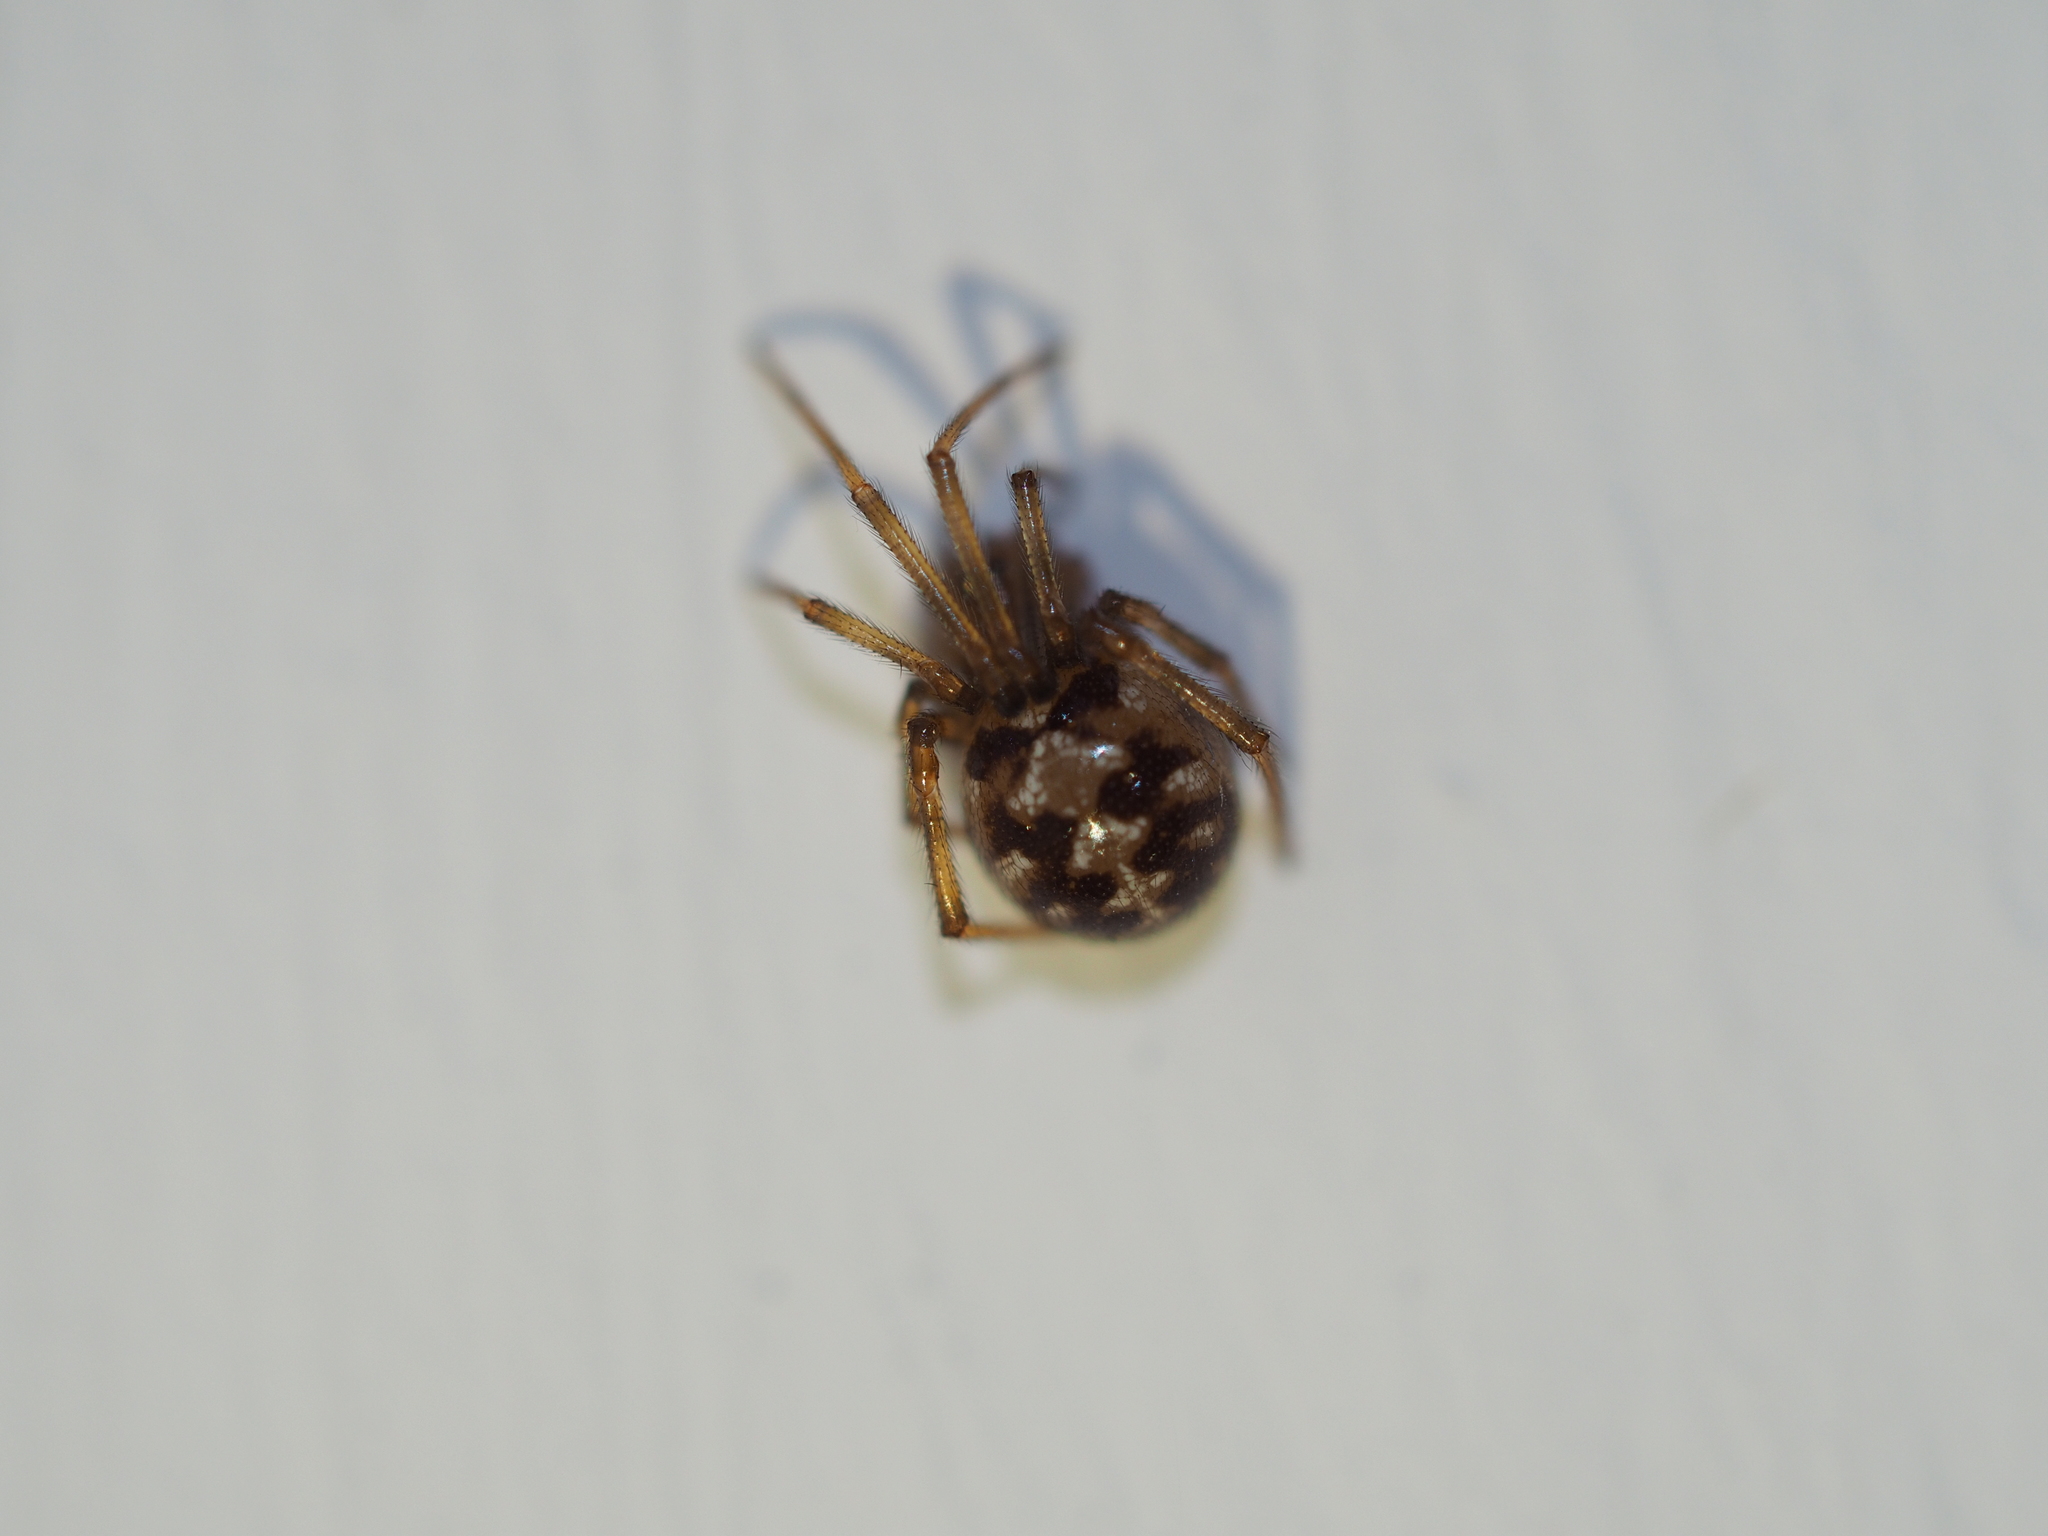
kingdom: Animalia
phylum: Arthropoda
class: Arachnida
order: Araneae
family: Theridiidae
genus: Steatoda
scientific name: Steatoda triangulosa
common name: Triangulate bud spider
